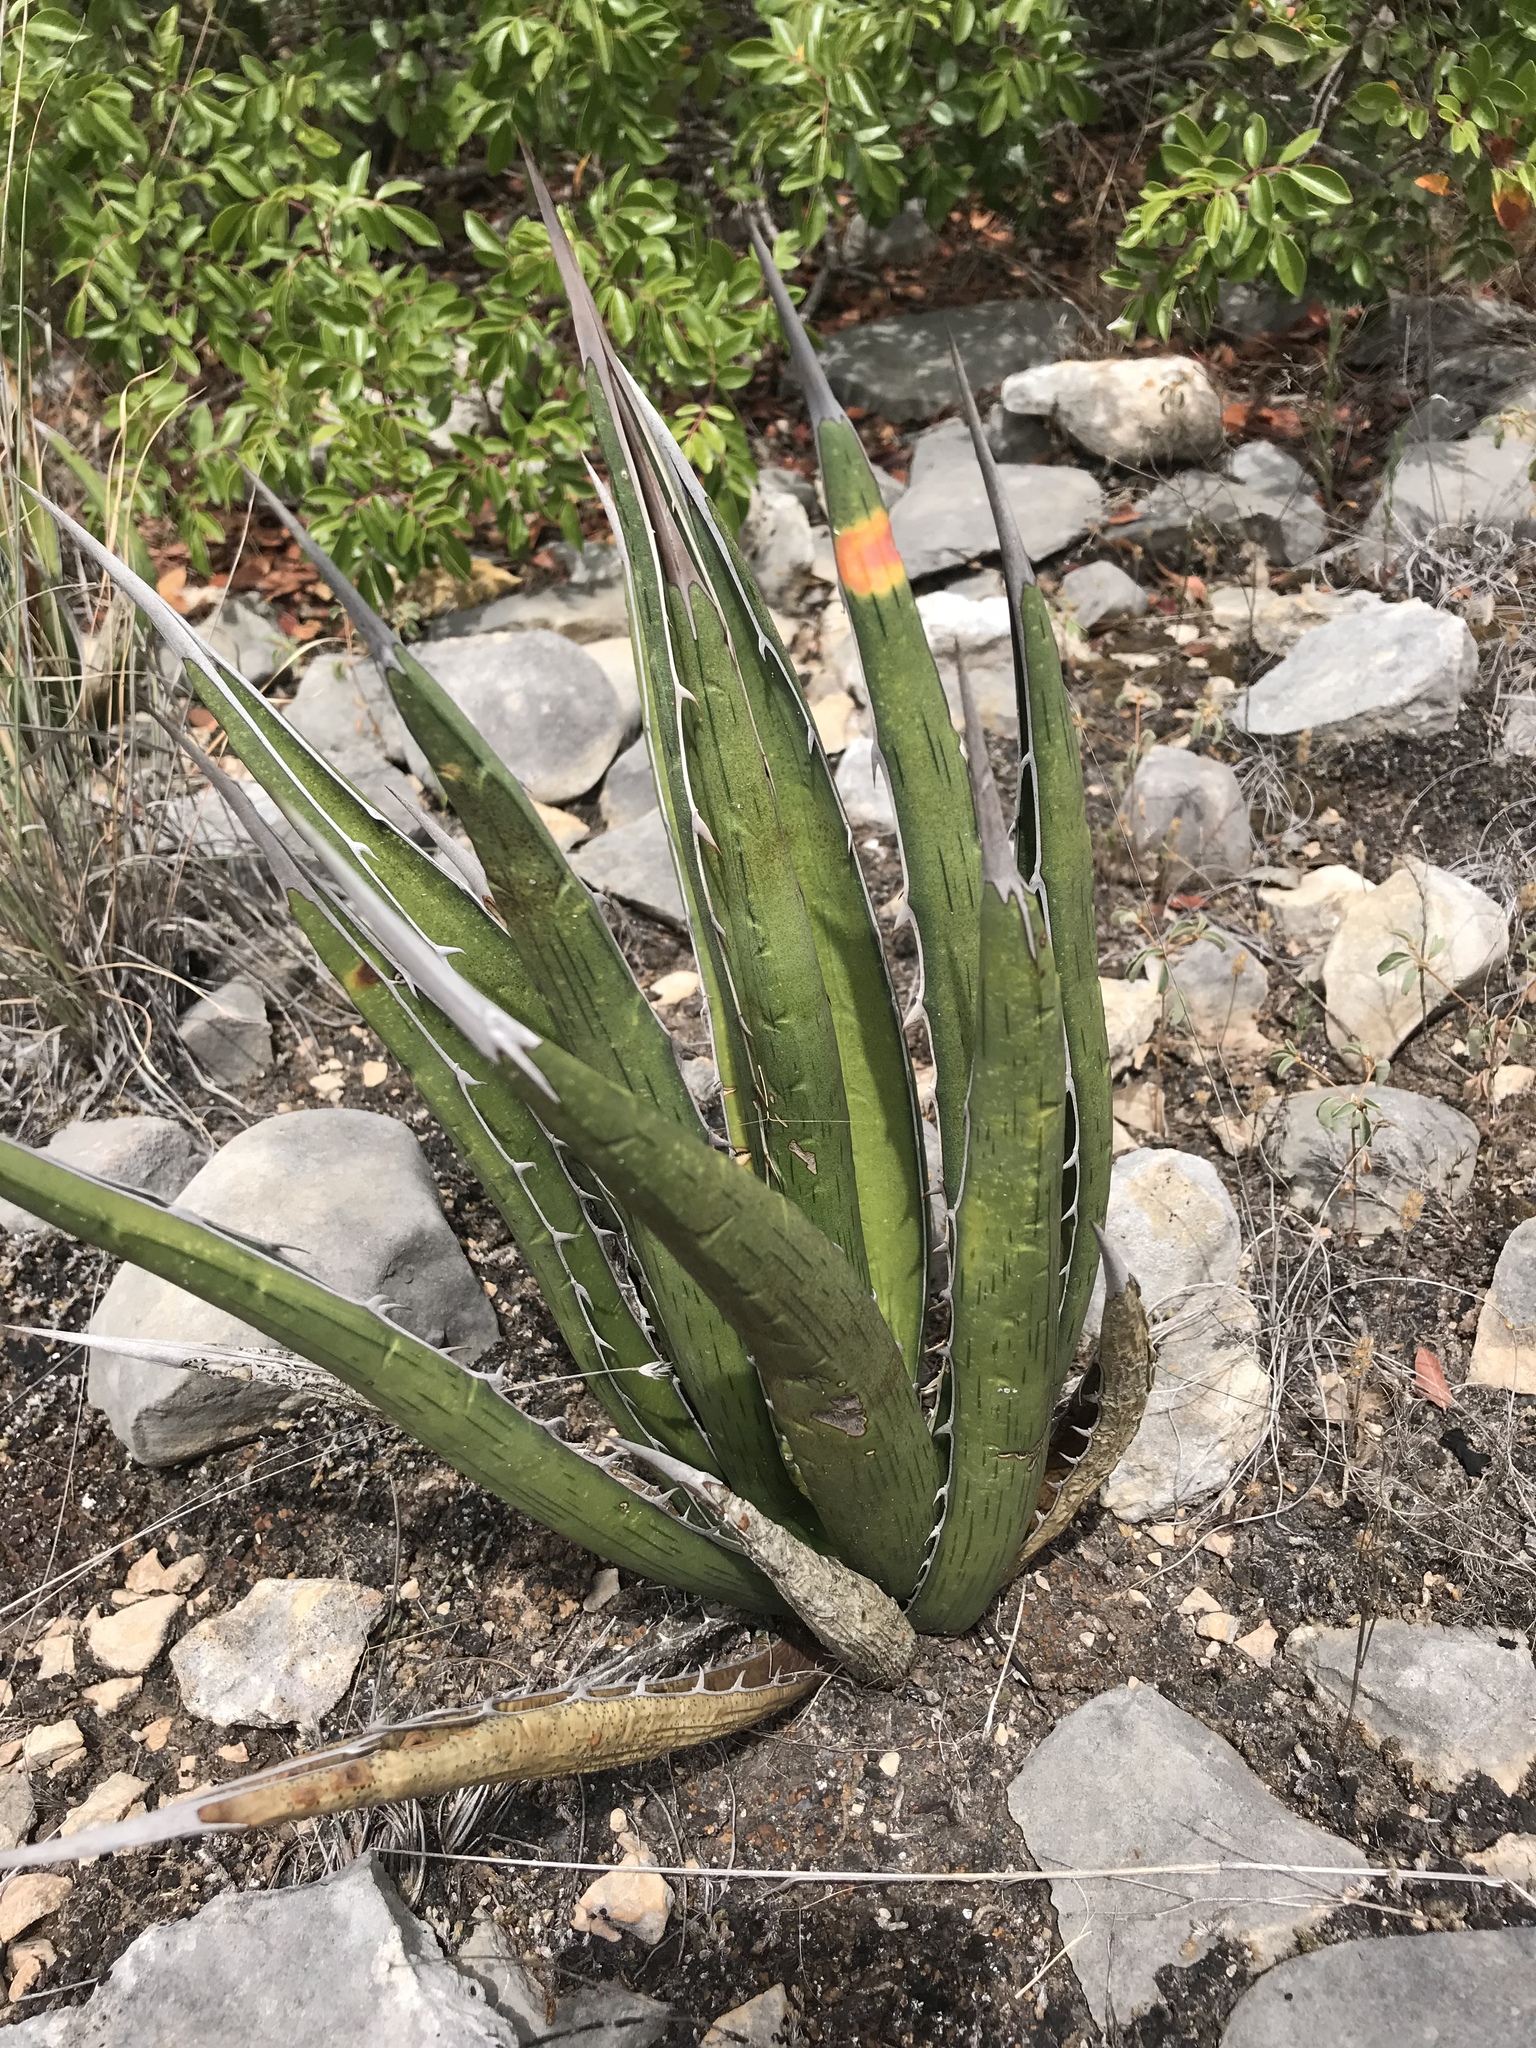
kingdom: Plantae
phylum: Tracheophyta
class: Liliopsida
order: Asparagales
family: Asparagaceae
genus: Agave
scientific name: Agave lechuguilla
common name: Lecheguilla agave
